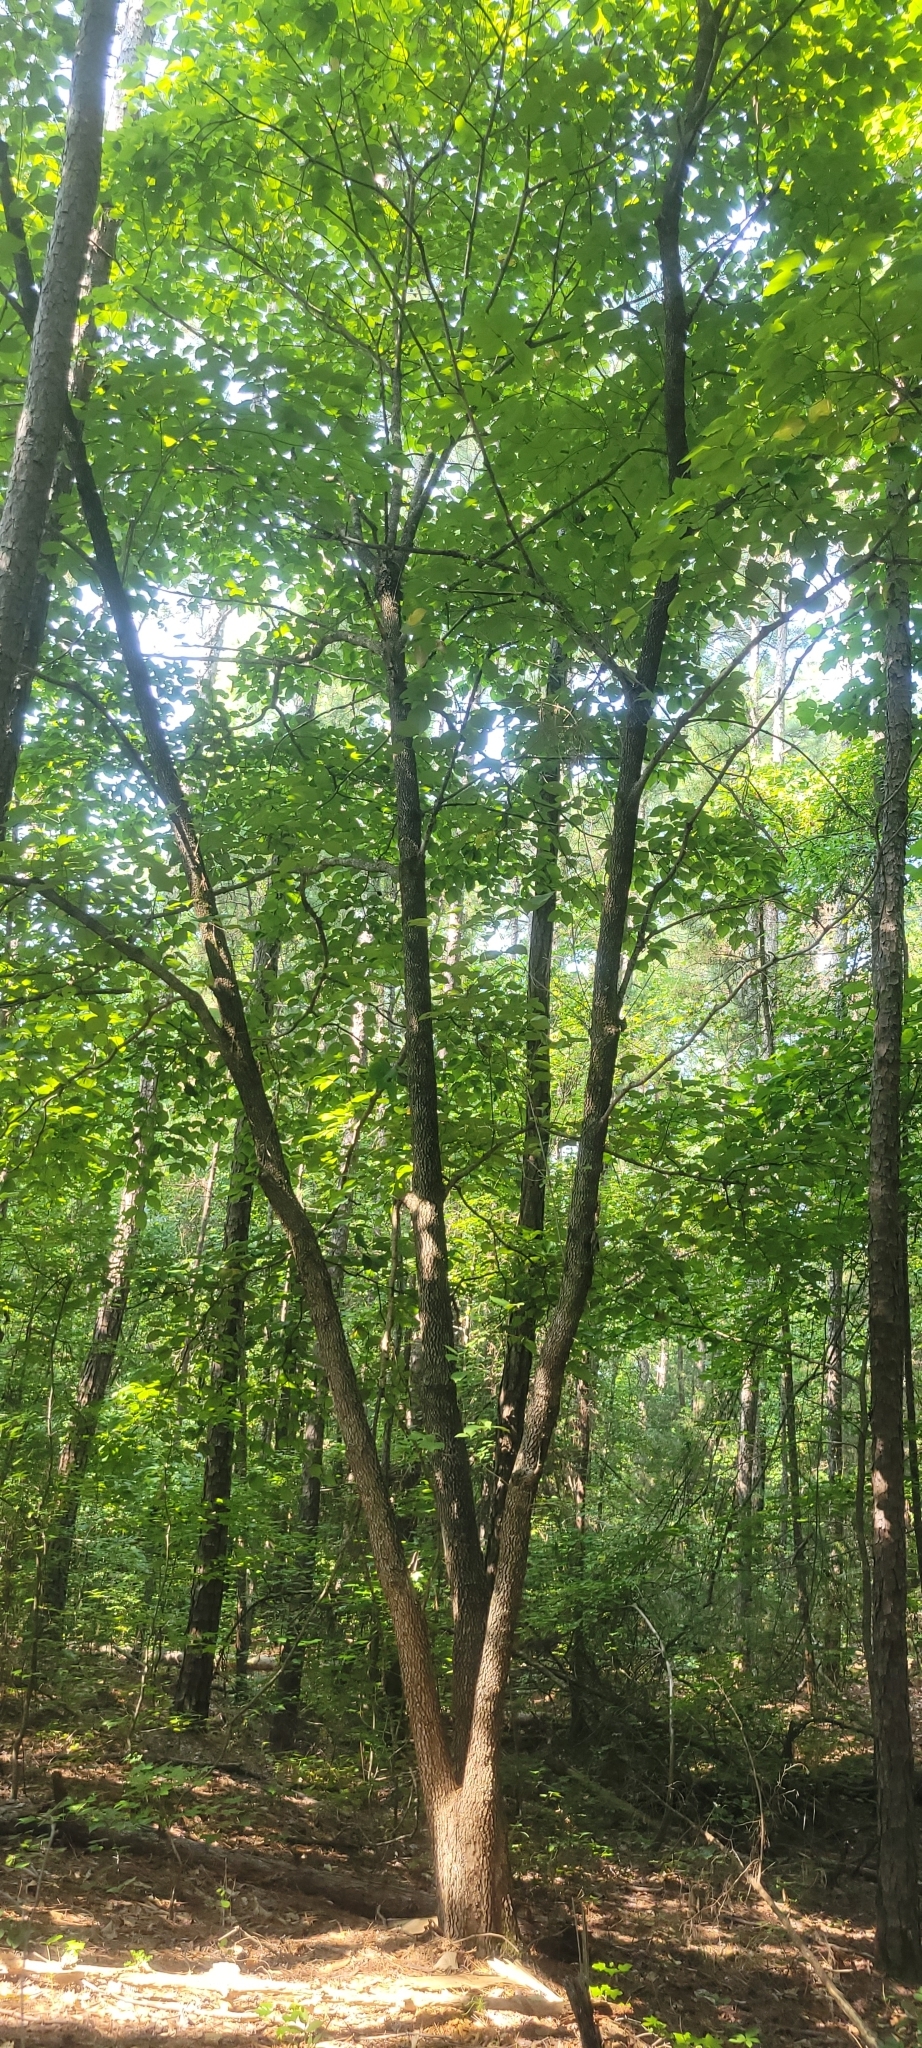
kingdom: Plantae
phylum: Tracheophyta
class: Magnoliopsida
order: Cornales
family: Cornaceae
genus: Cornus
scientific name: Cornus florida
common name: Flowering dogwood
